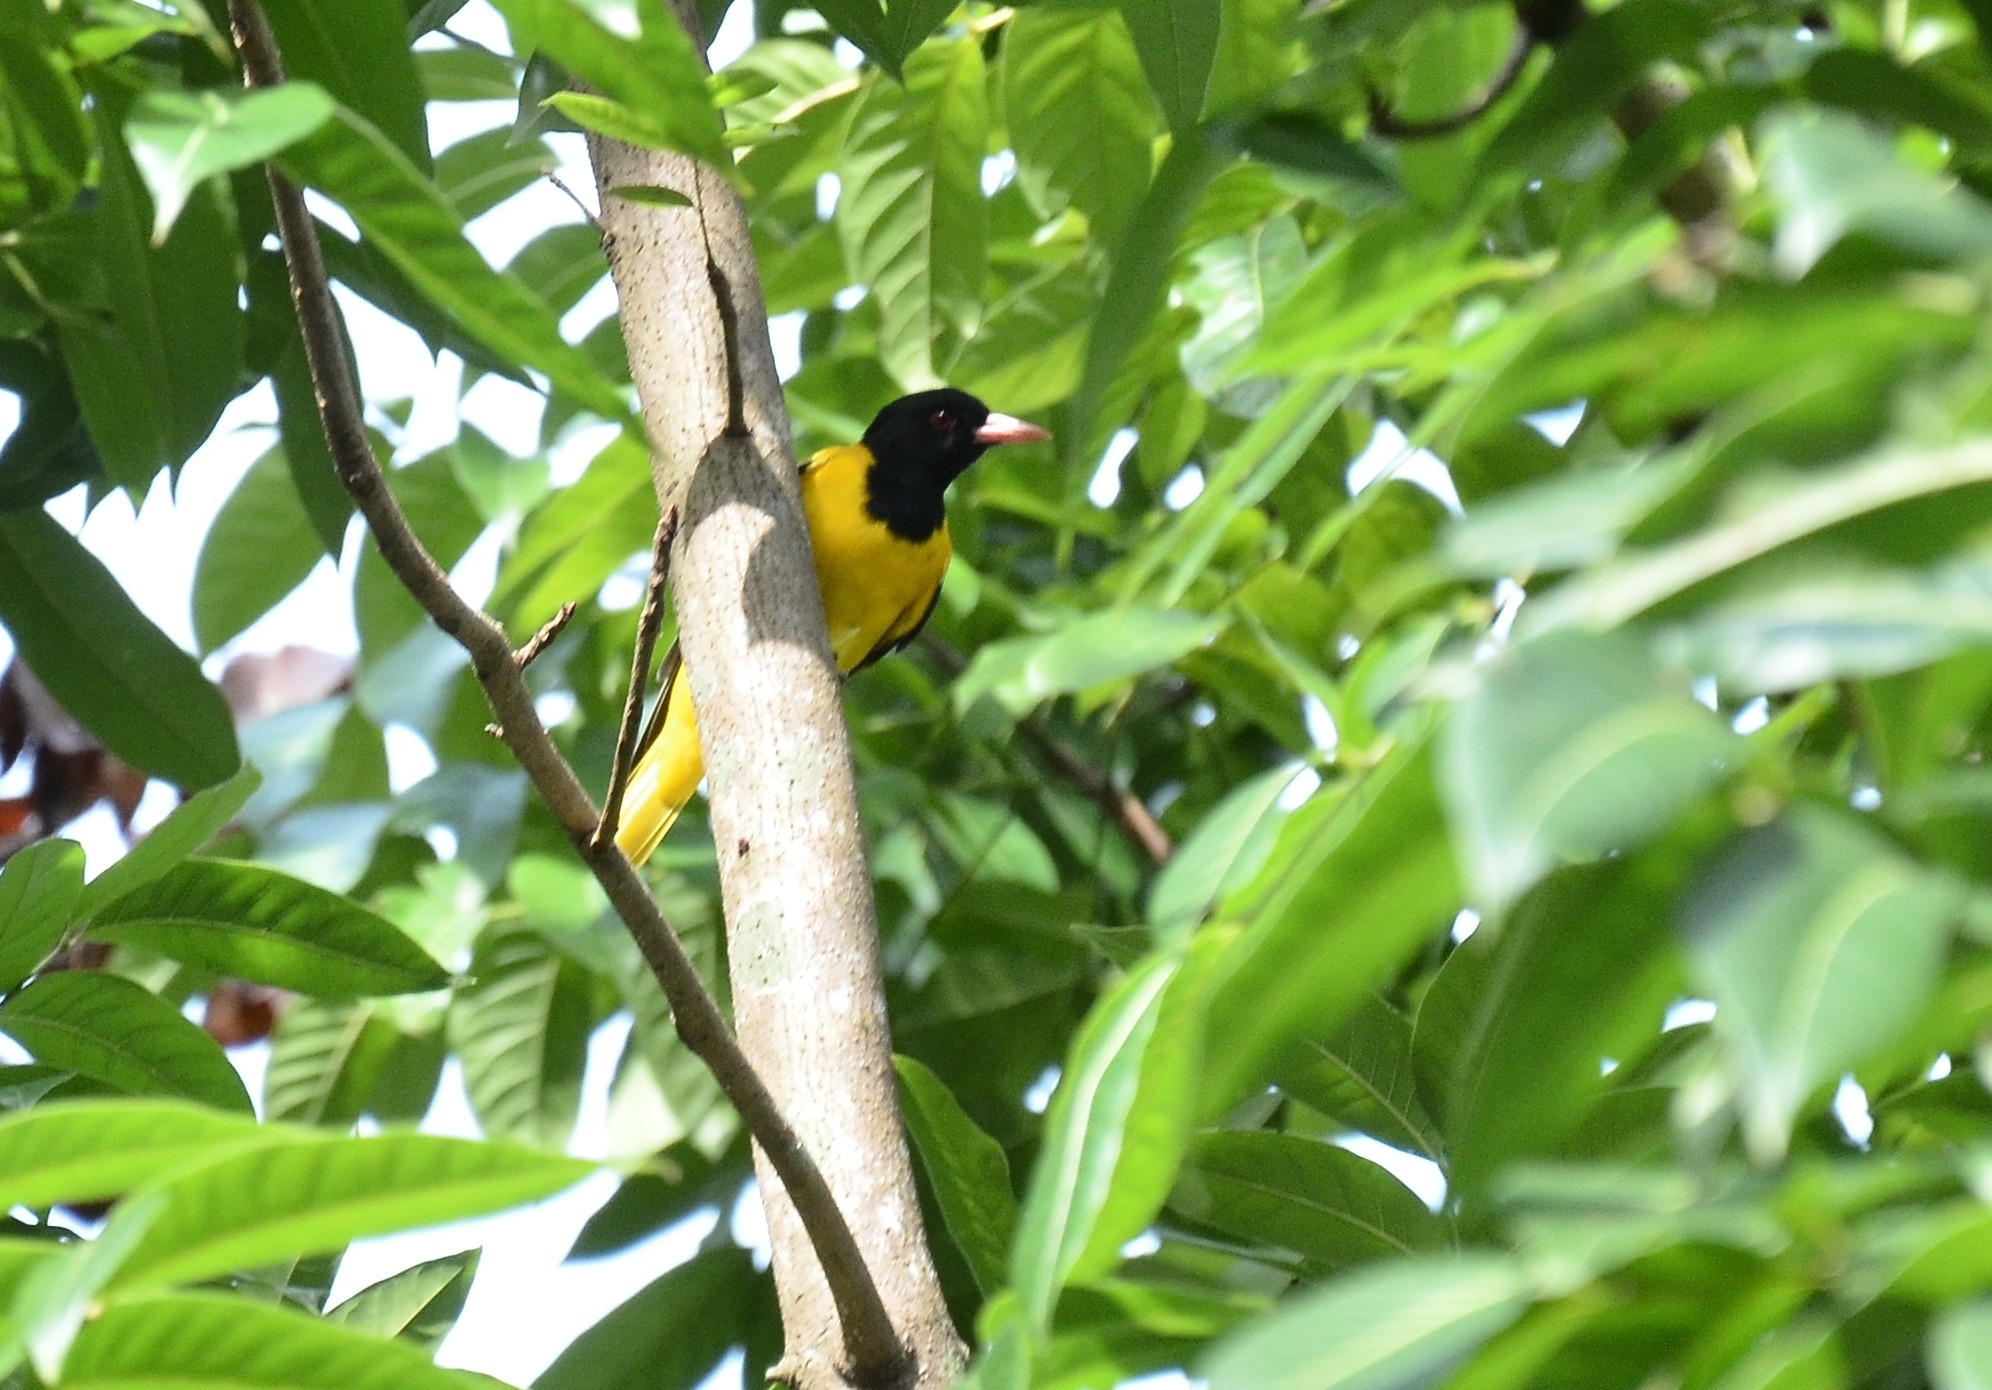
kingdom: Animalia
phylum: Chordata
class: Aves
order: Passeriformes
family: Oriolidae
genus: Oriolus
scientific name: Oriolus xanthornus
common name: Black-hooded oriole
